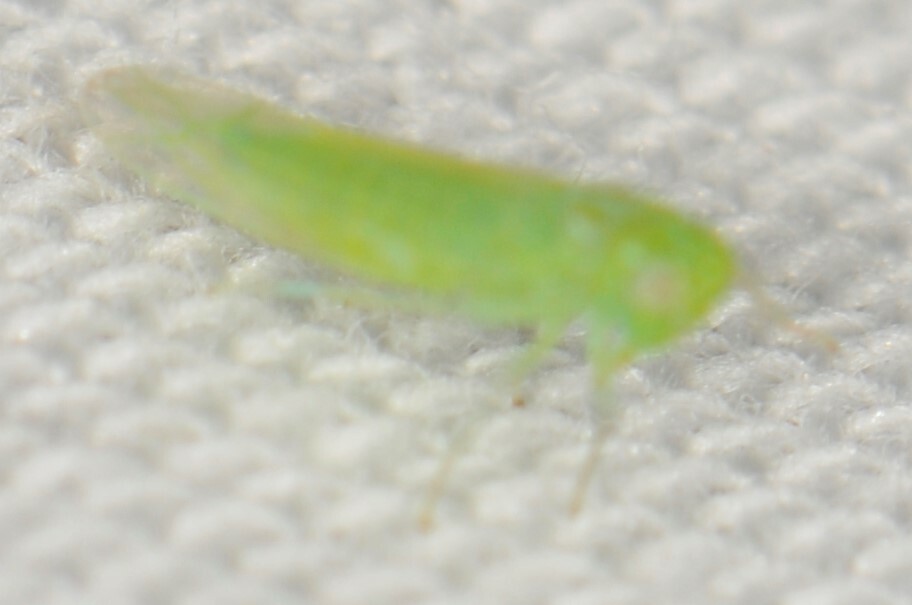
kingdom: Animalia
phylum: Arthropoda
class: Insecta
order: Hemiptera
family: Cicadellidae
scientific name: Cicadellidae
